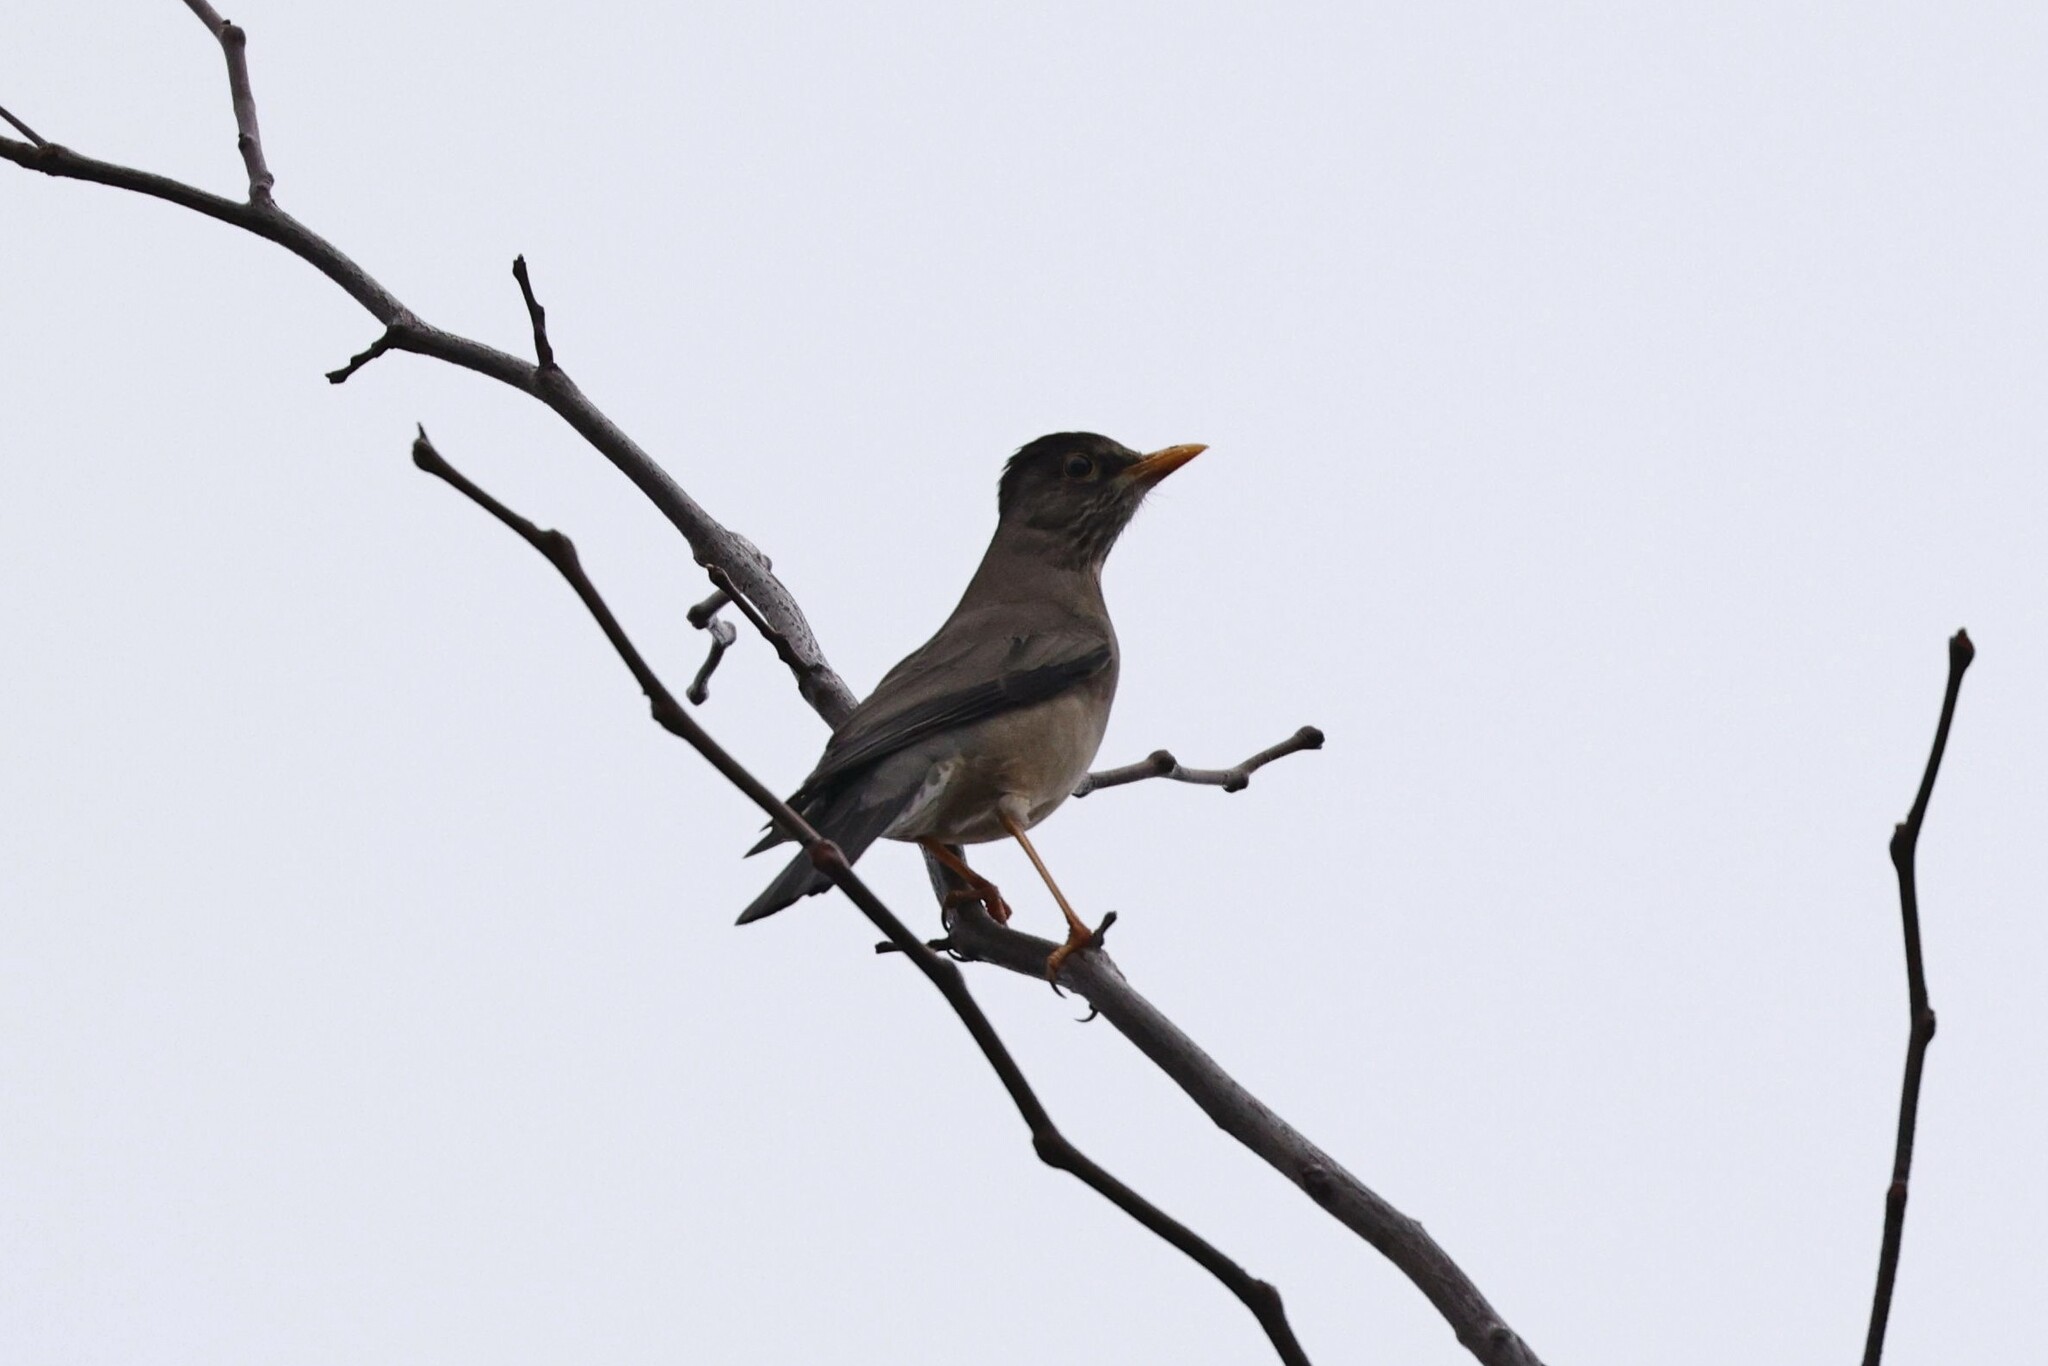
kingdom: Animalia
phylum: Chordata
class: Aves
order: Passeriformes
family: Turdidae
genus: Turdus
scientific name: Turdus falcklandii
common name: Austral thrush
